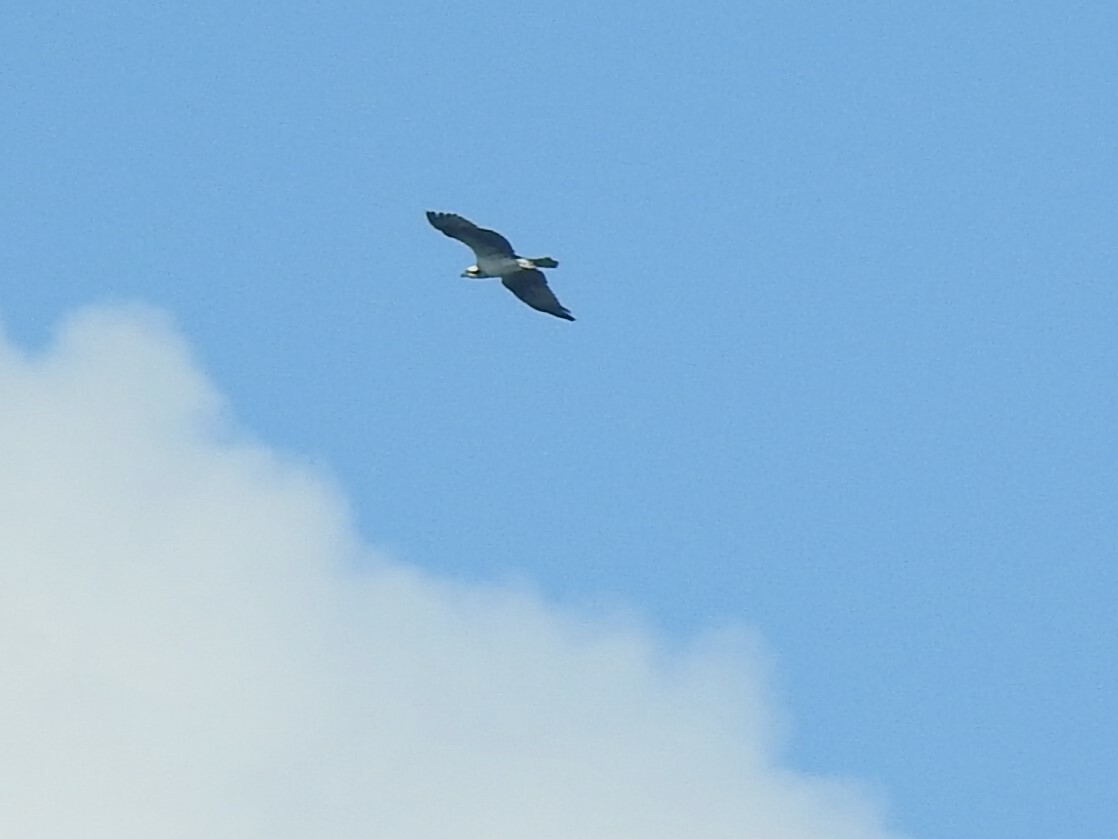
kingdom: Animalia
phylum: Chordata
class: Aves
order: Accipitriformes
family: Pandionidae
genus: Pandion
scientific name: Pandion haliaetus
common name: Osprey
